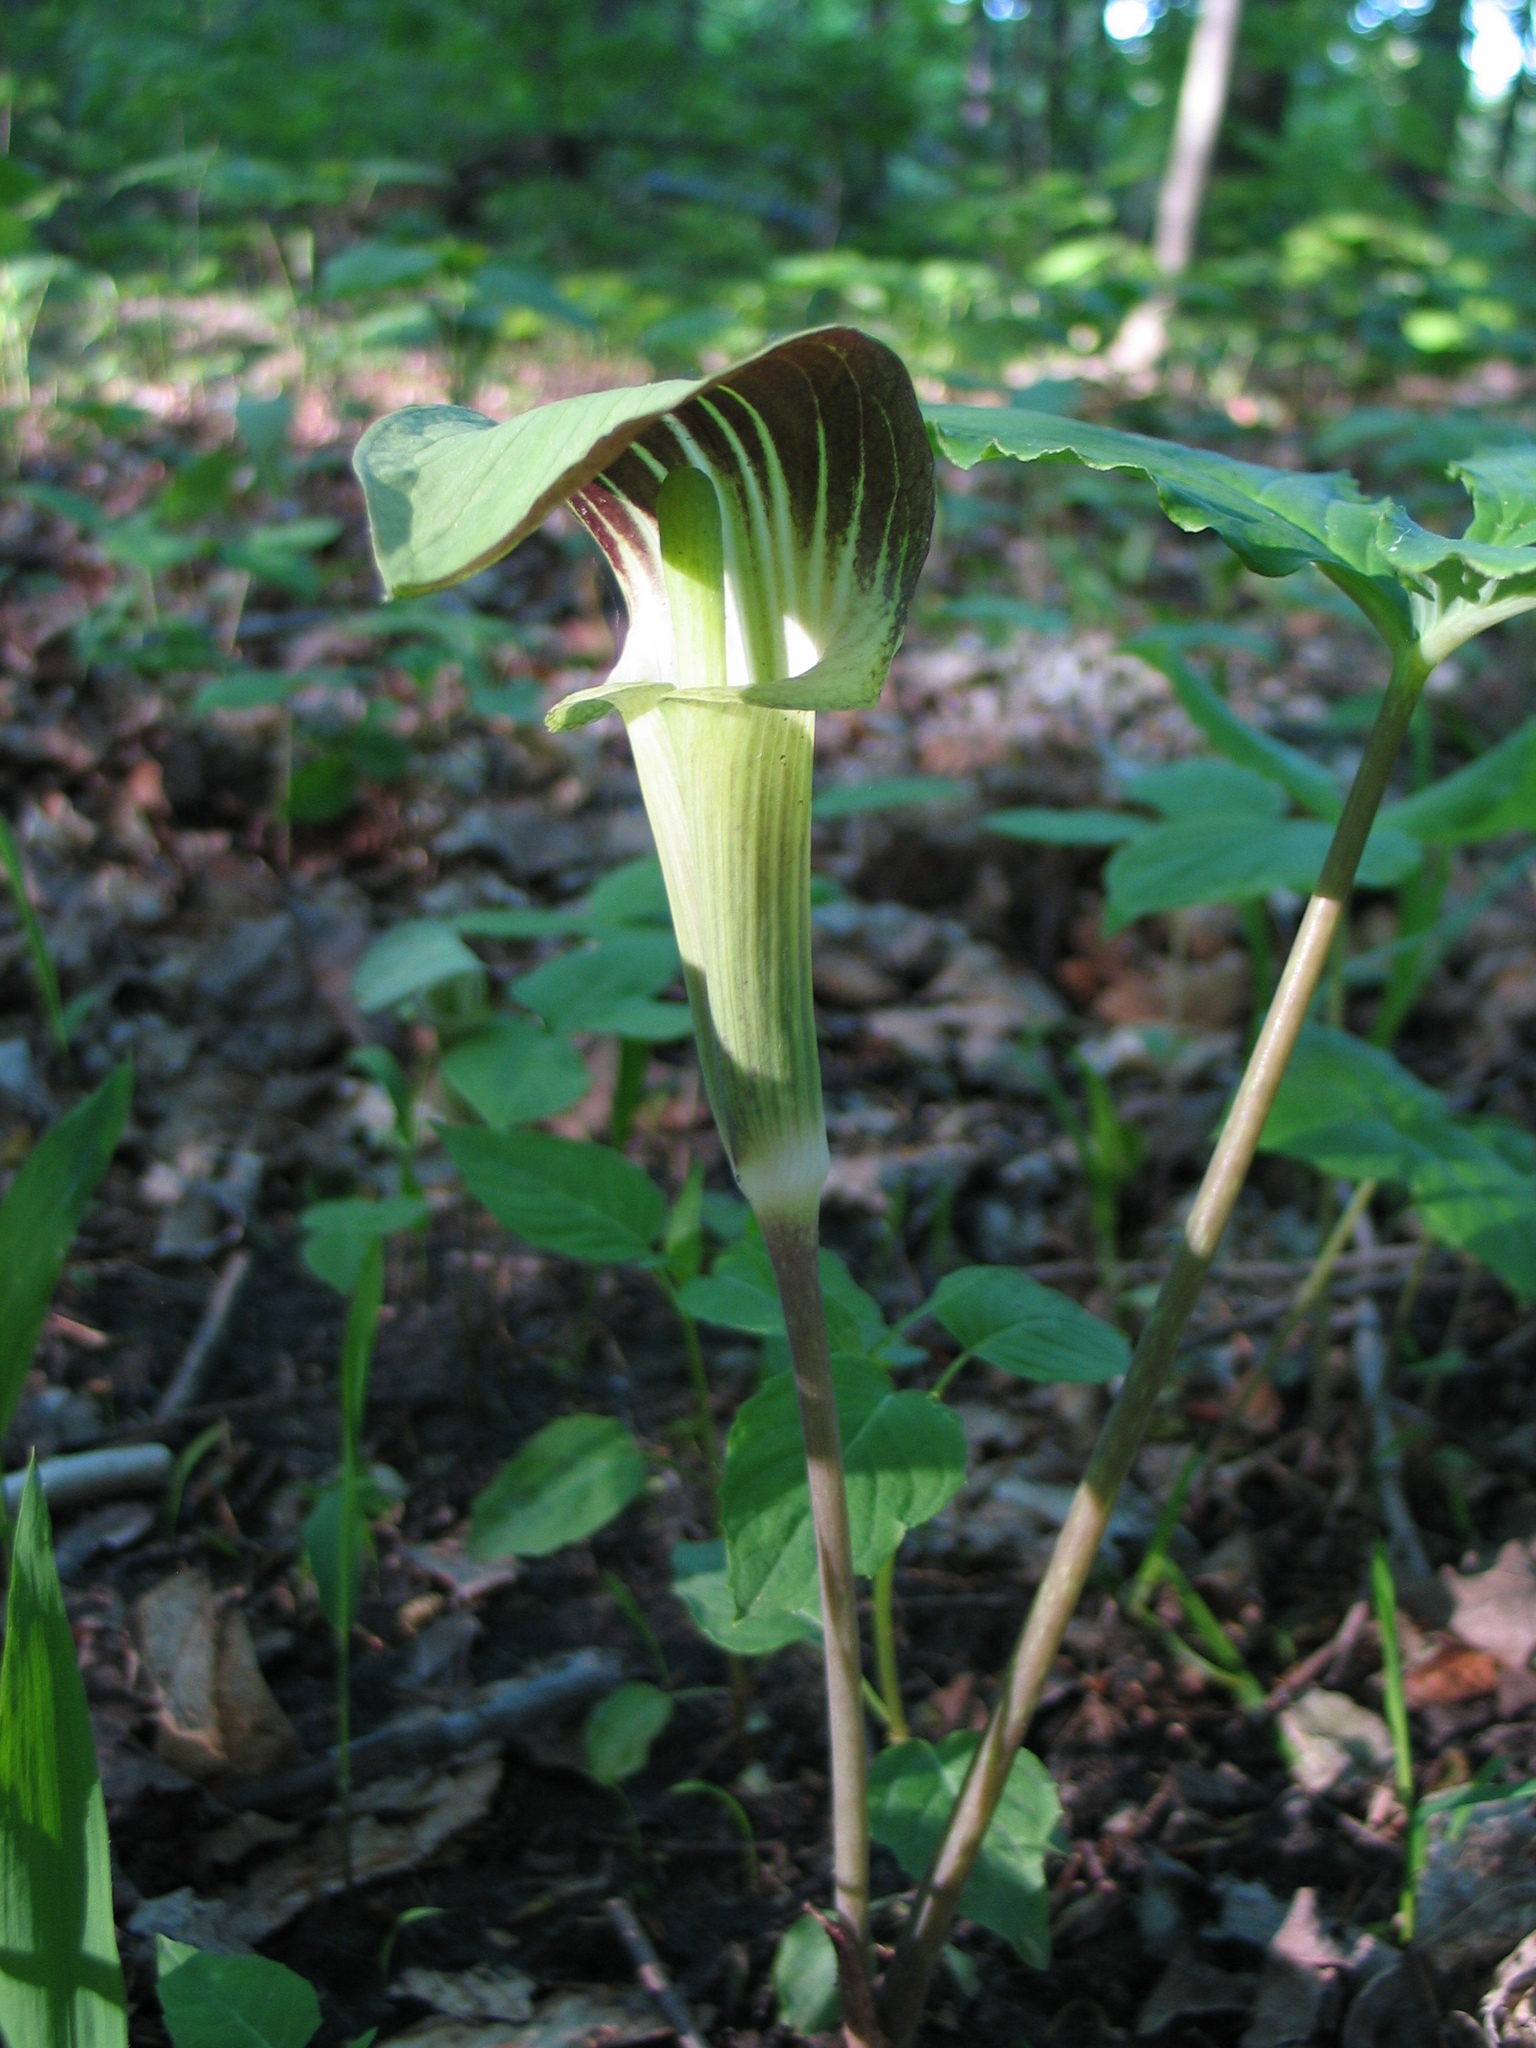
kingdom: Plantae
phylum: Tracheophyta
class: Liliopsida
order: Alismatales
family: Araceae
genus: Arisaema
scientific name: Arisaema triphyllum
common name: Jack-in-the-pulpit
